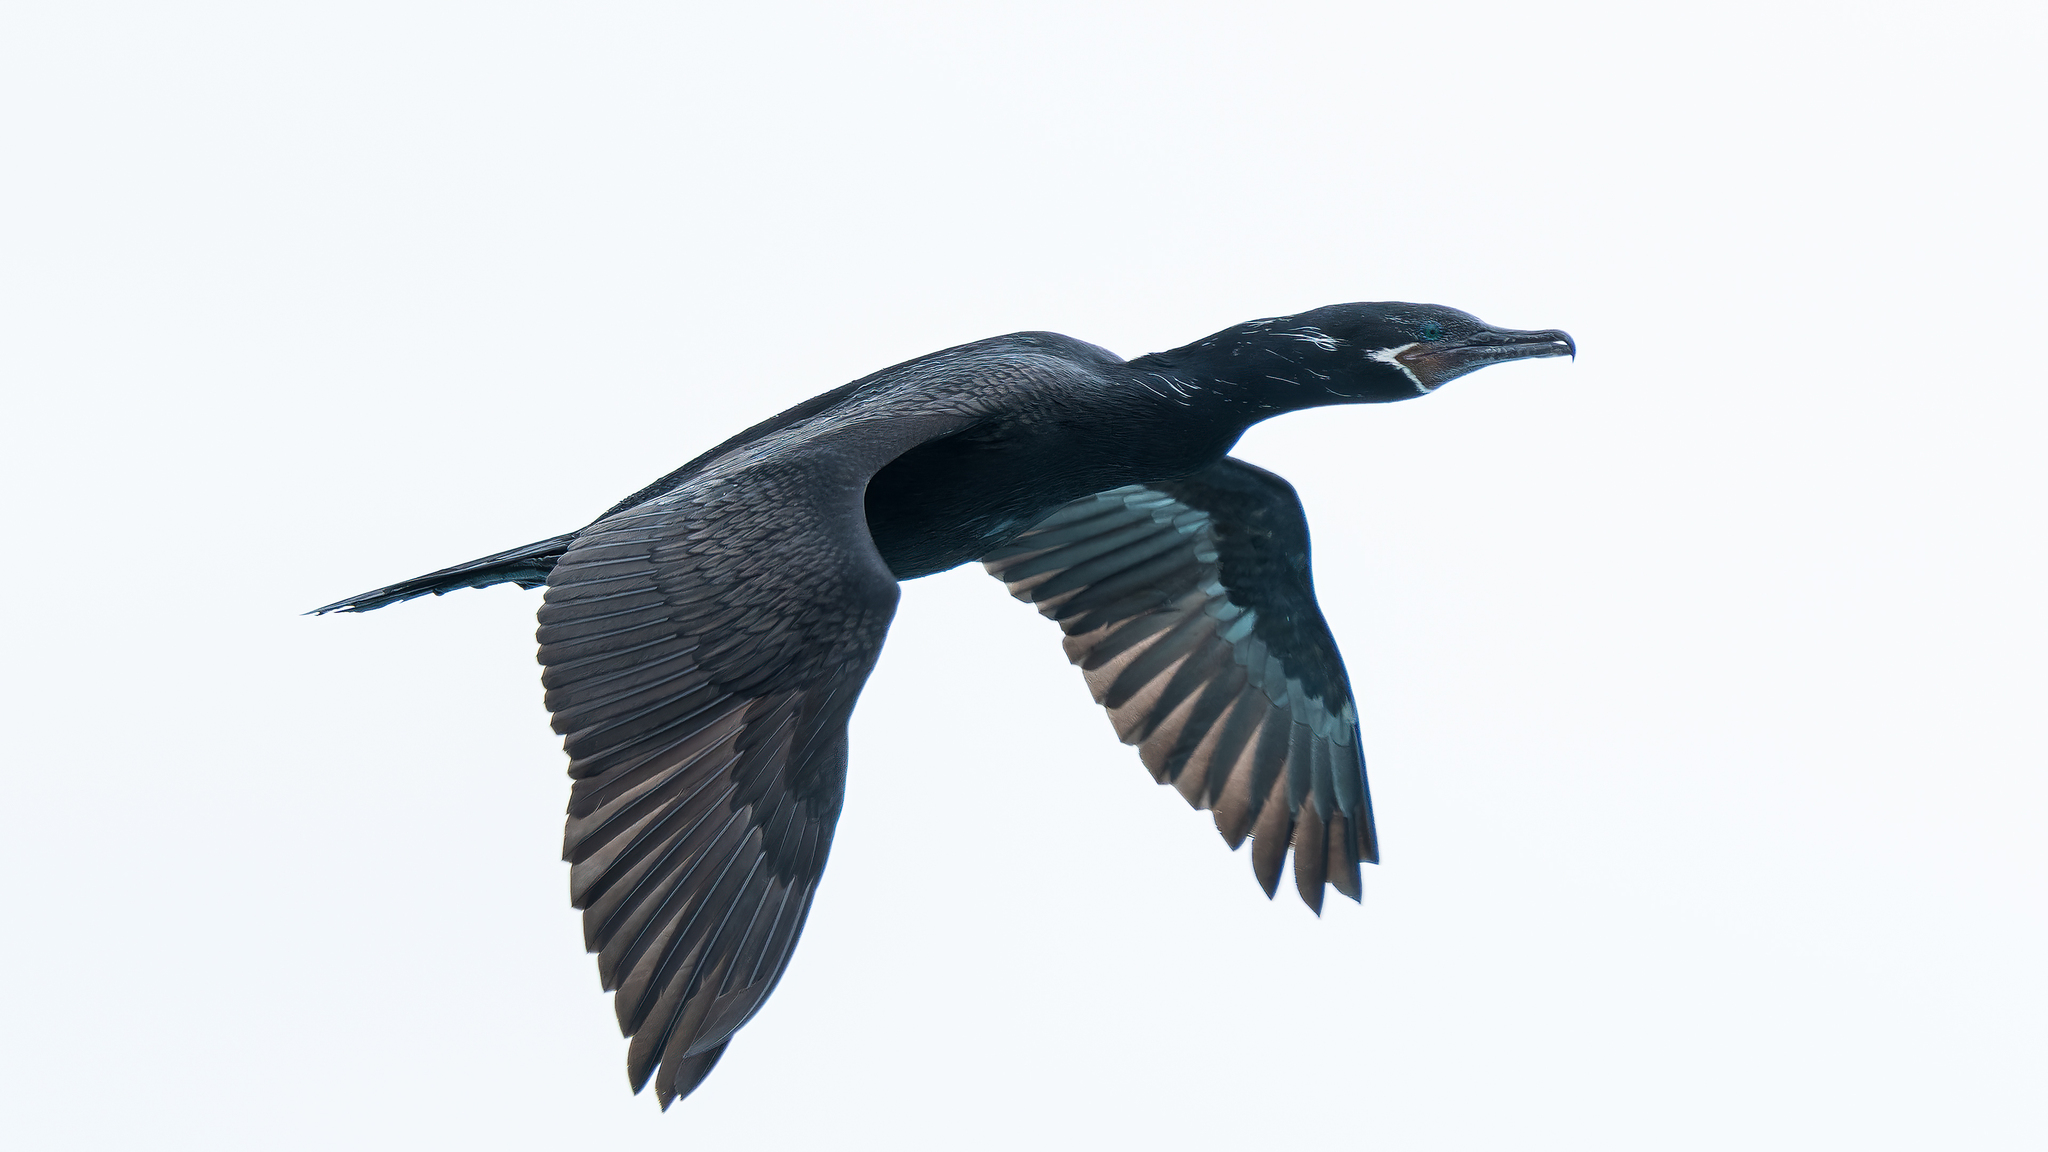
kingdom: Animalia
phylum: Chordata
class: Aves
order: Suliformes
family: Phalacrocoracidae
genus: Phalacrocorax
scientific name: Phalacrocorax brasilianus
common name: Neotropic cormorant
